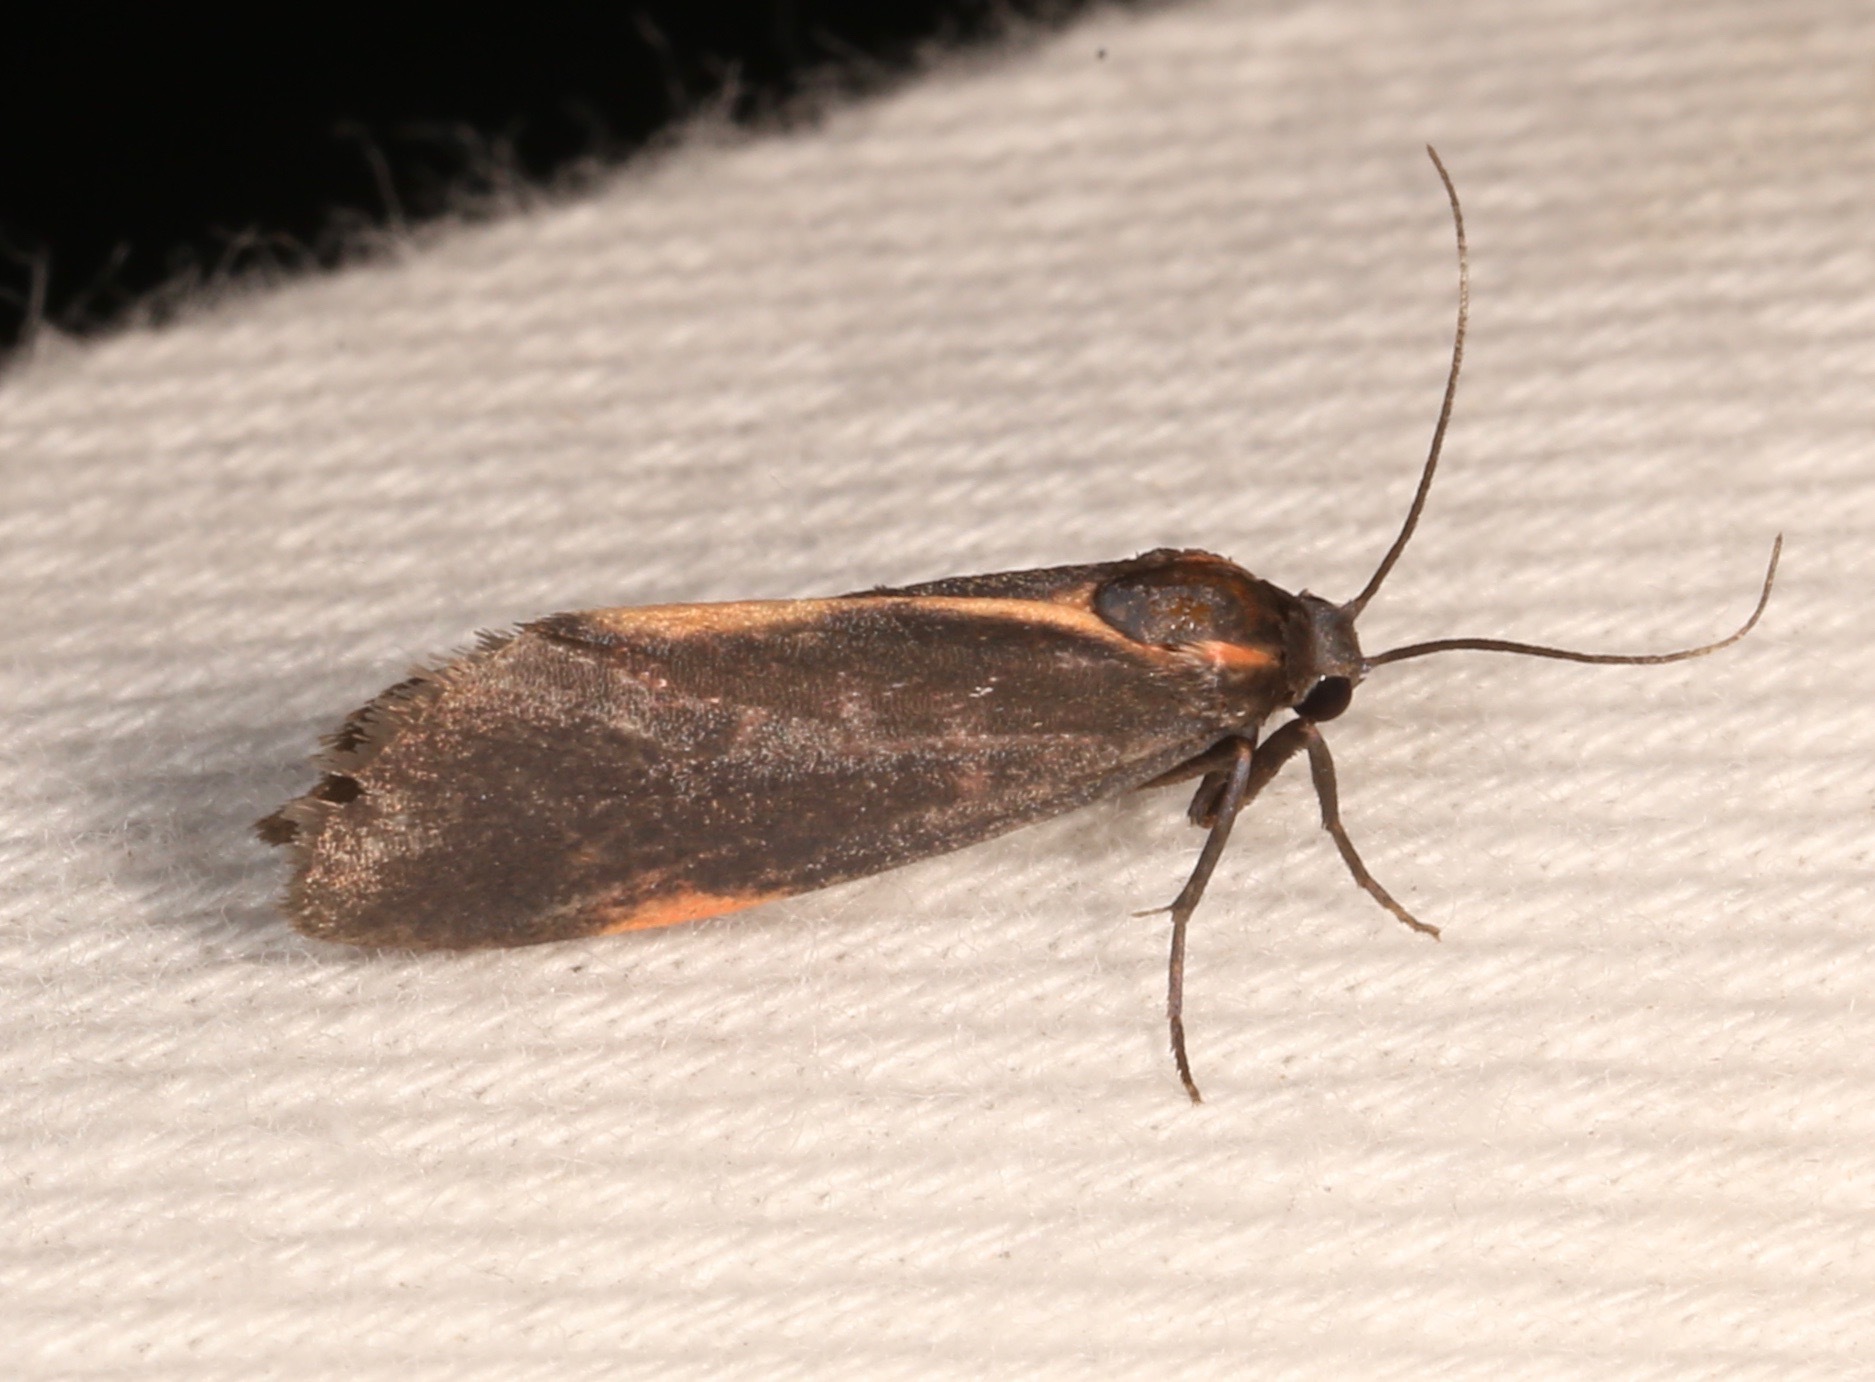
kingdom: Animalia
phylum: Arthropoda
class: Insecta
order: Lepidoptera
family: Erebidae
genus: Cisthene
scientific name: Cisthene juanita
